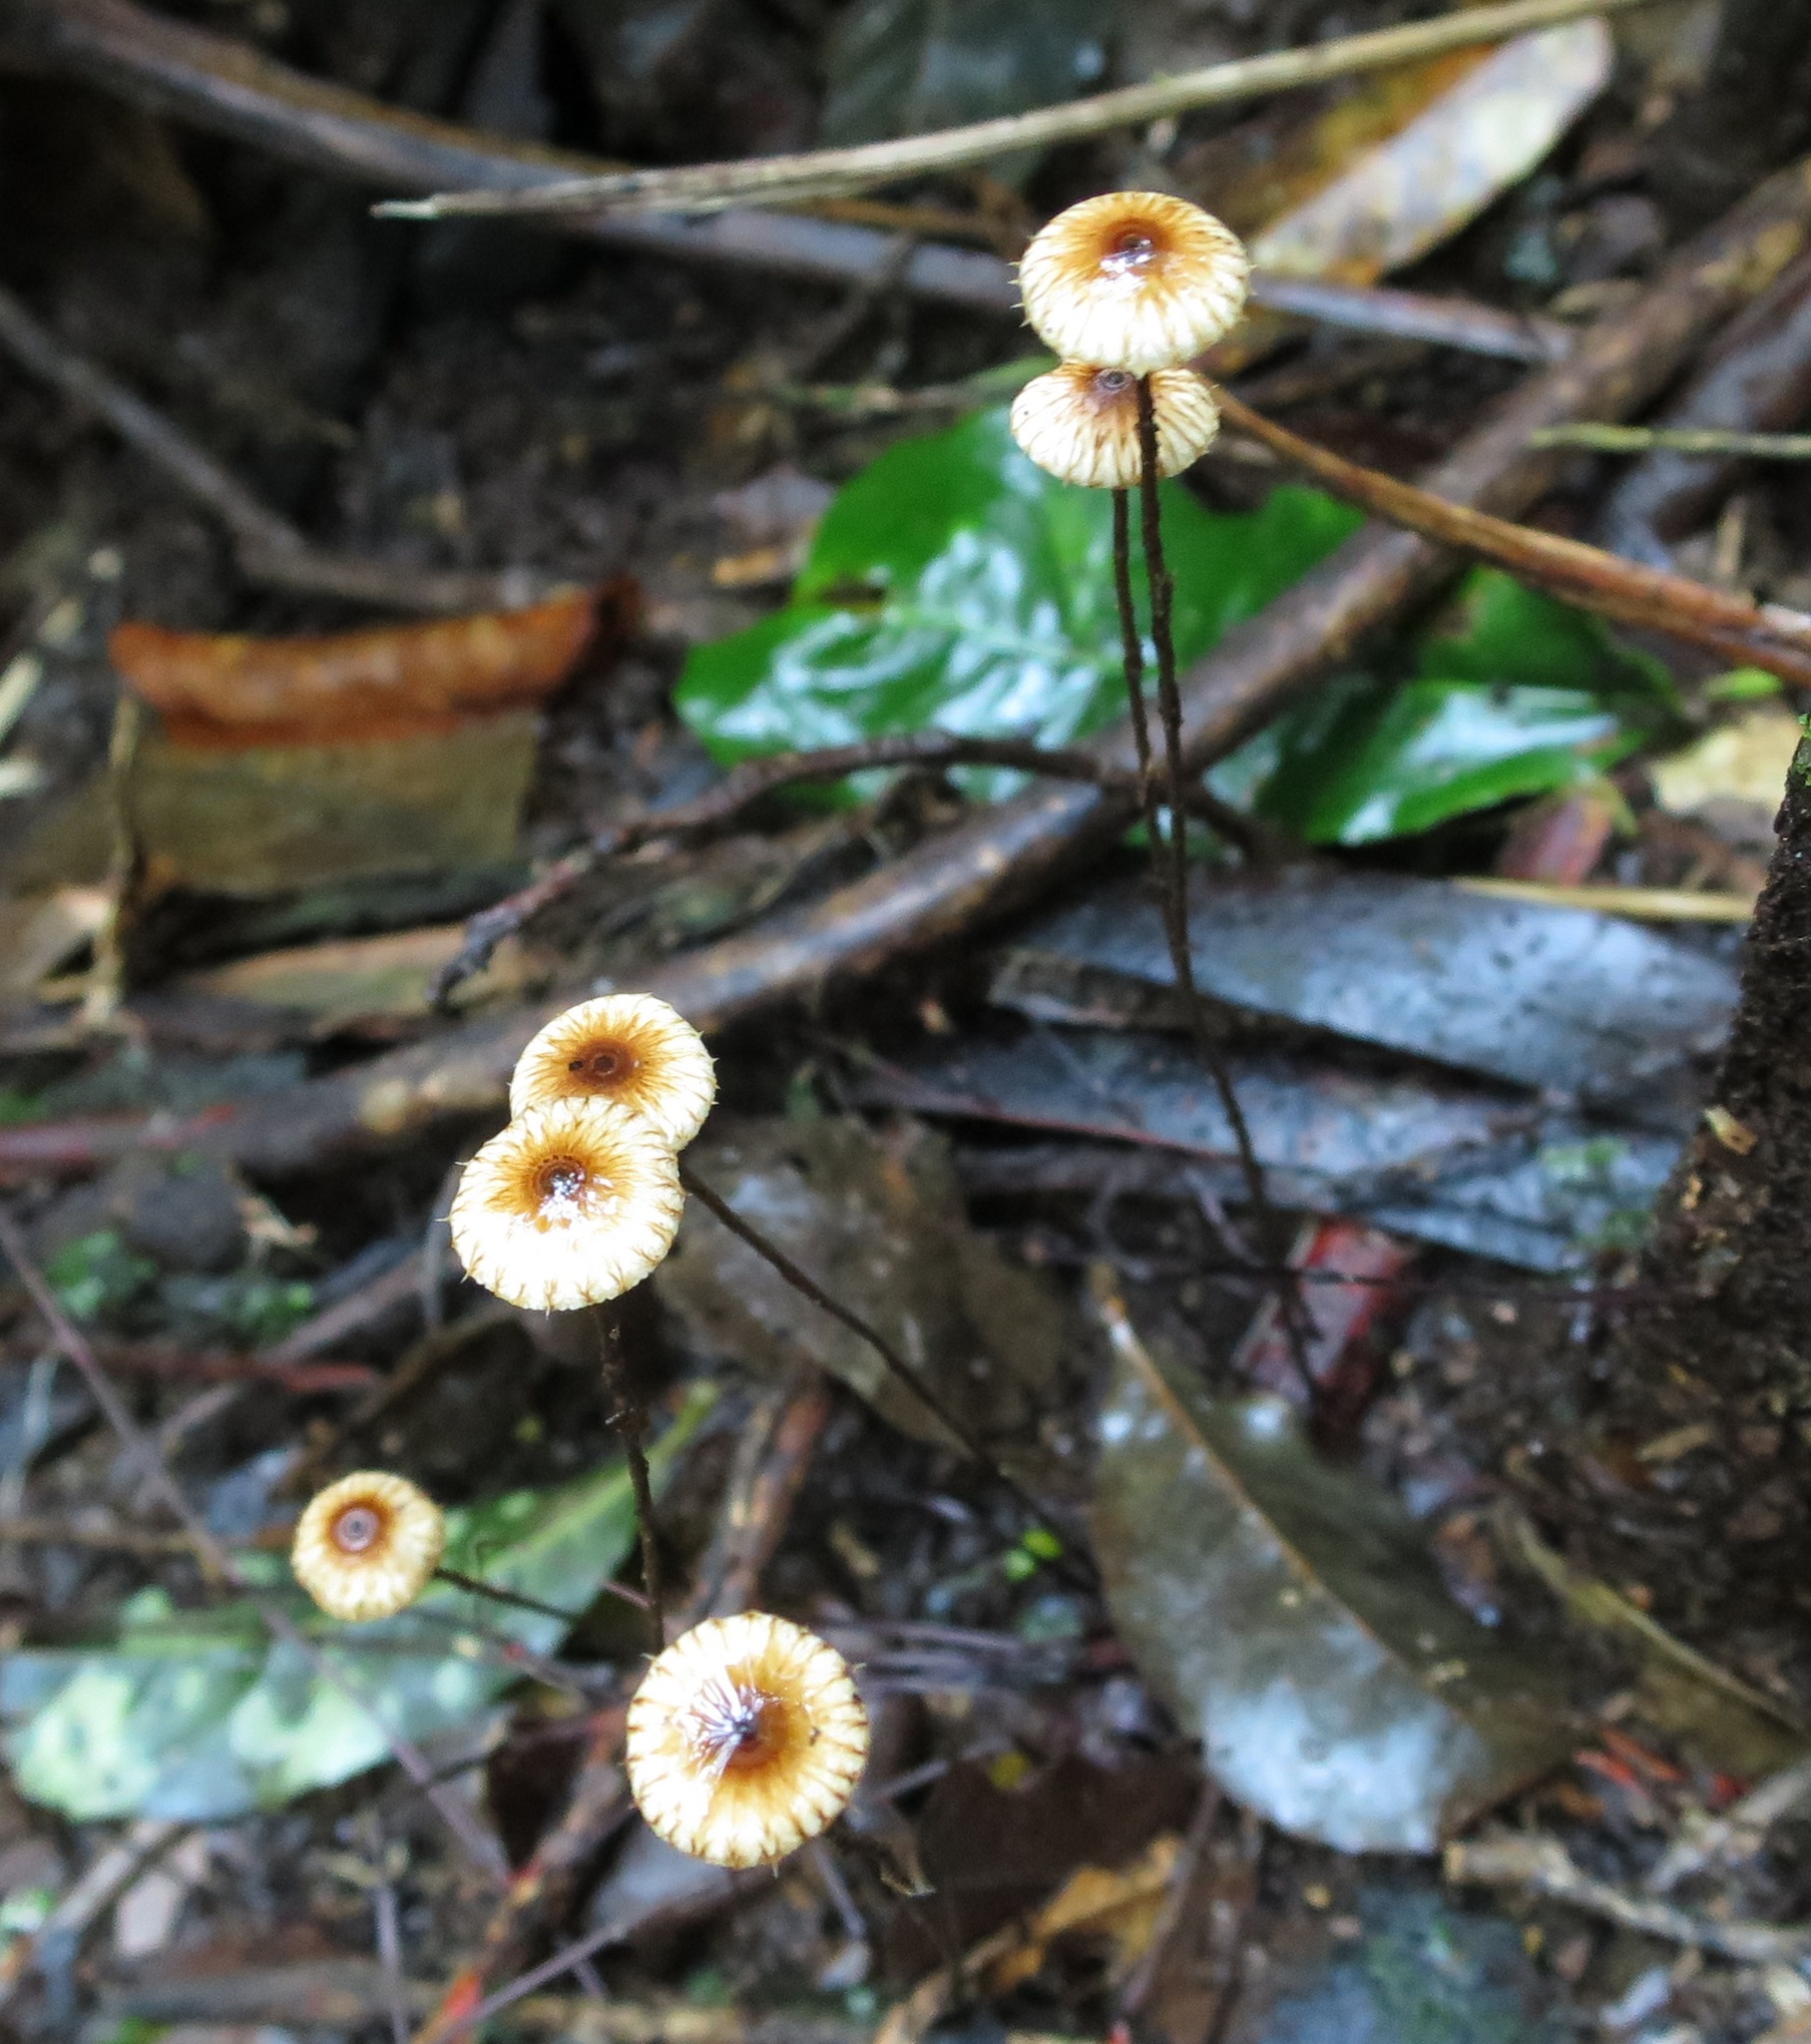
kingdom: Fungi
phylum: Basidiomycota
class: Agaricomycetes
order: Agaricales
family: Marasmiaceae
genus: Crinipellis
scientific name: Crinipellis procera
